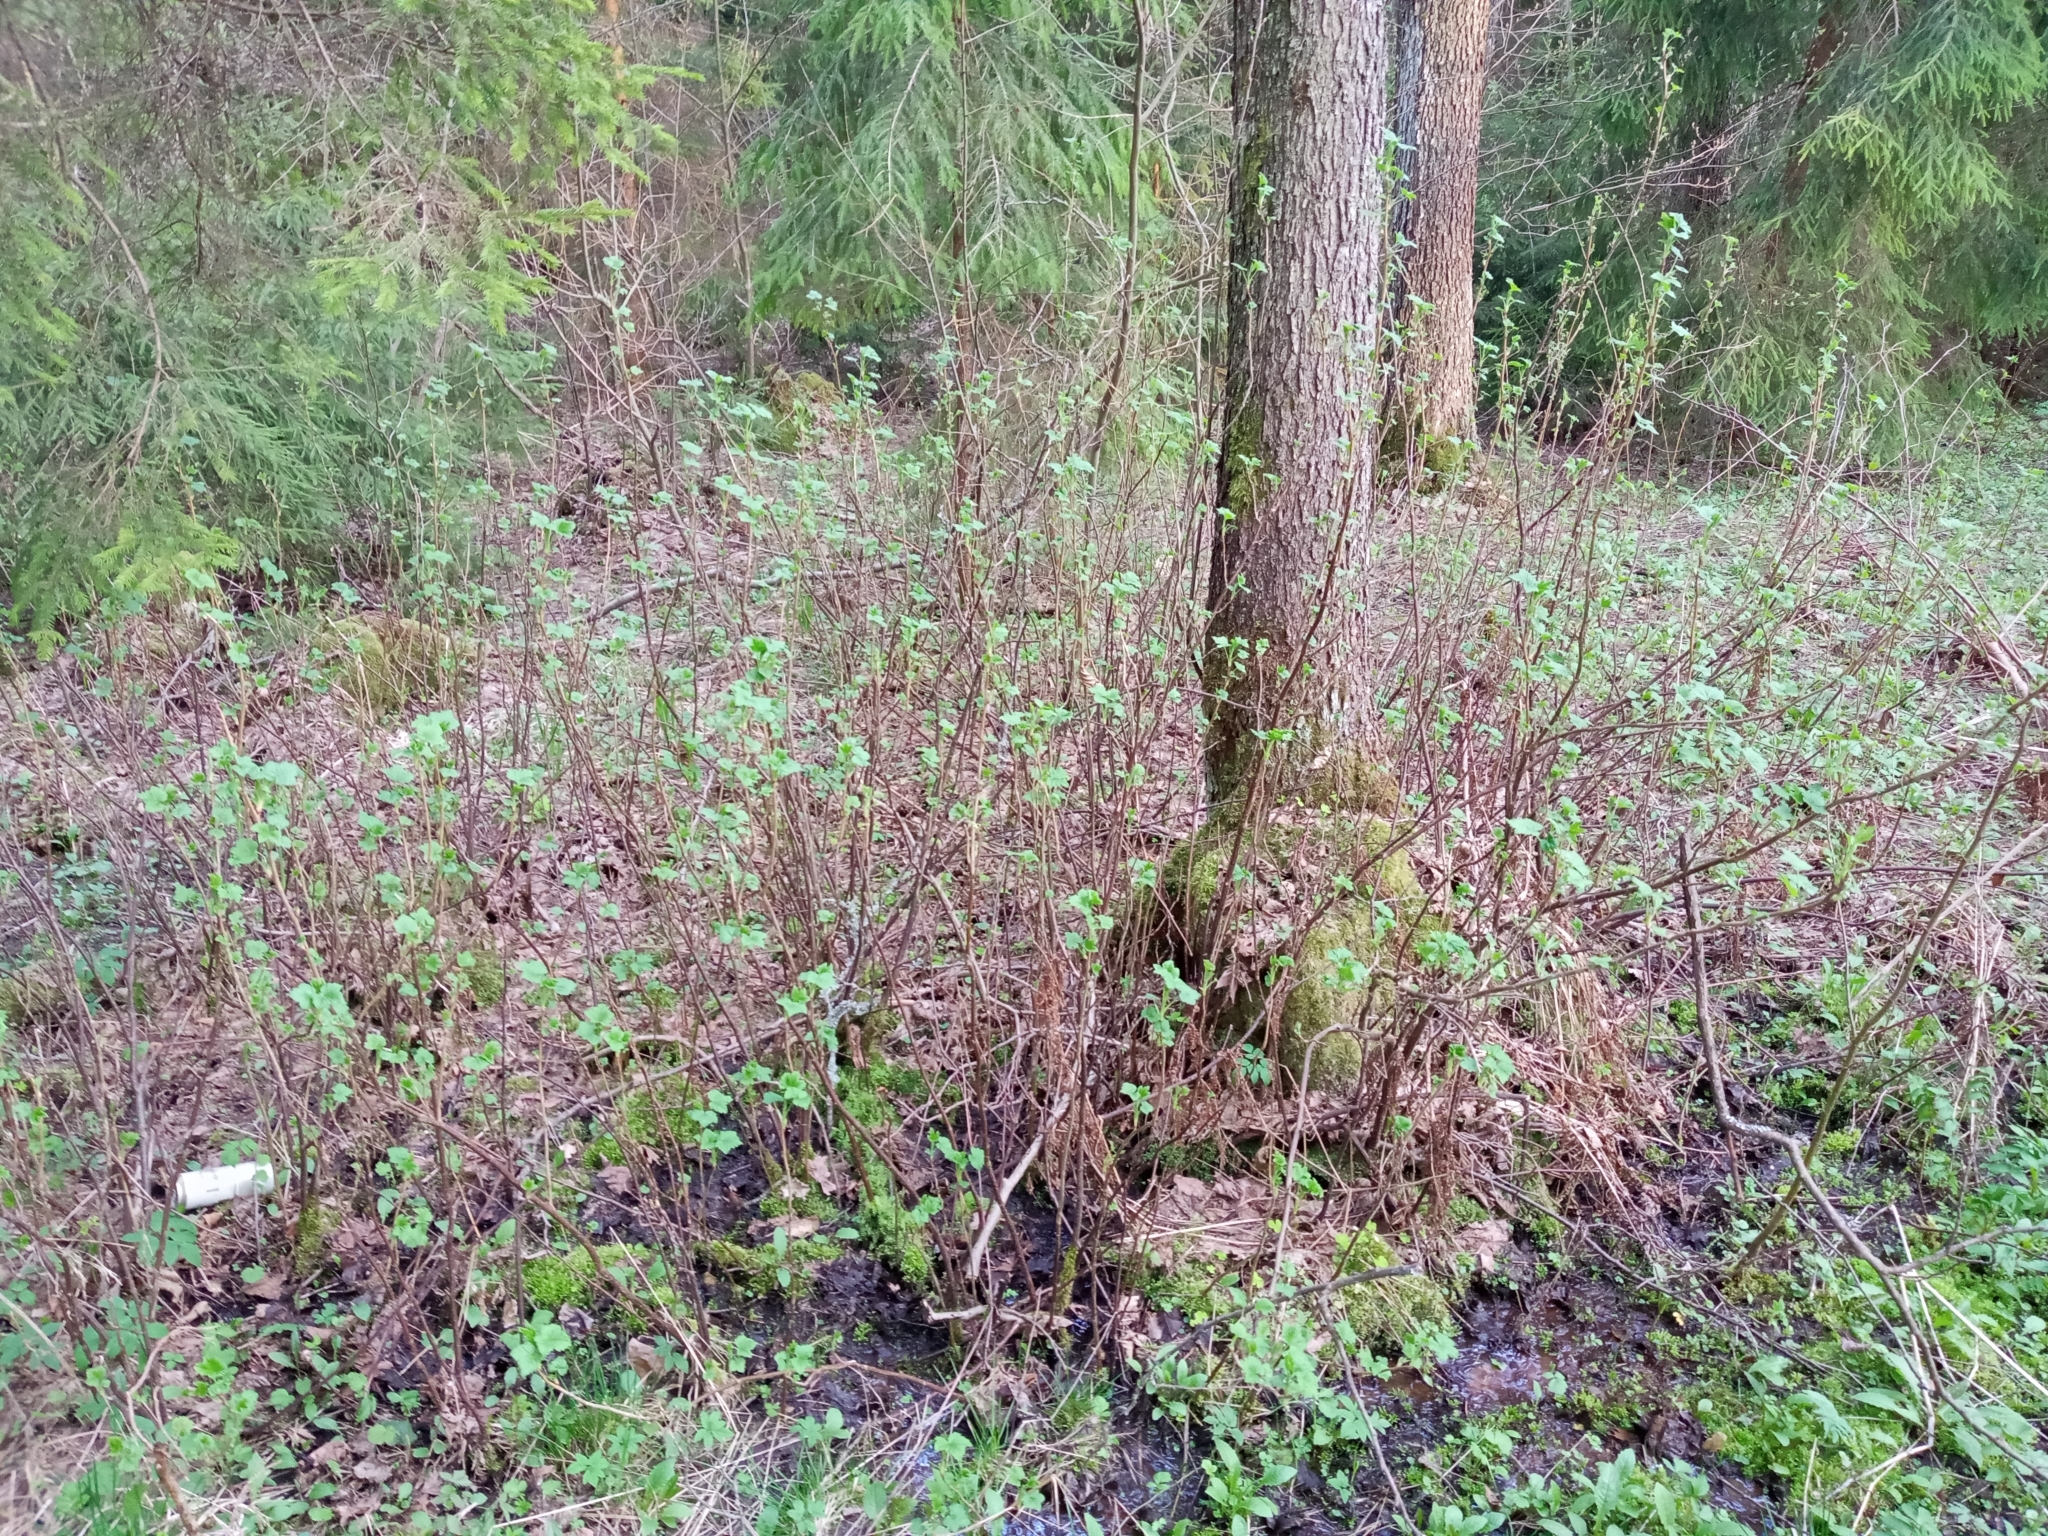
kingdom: Plantae
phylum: Tracheophyta
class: Magnoliopsida
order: Saxifragales
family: Grossulariaceae
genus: Ribes
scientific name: Ribes nigrum
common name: Black currant
